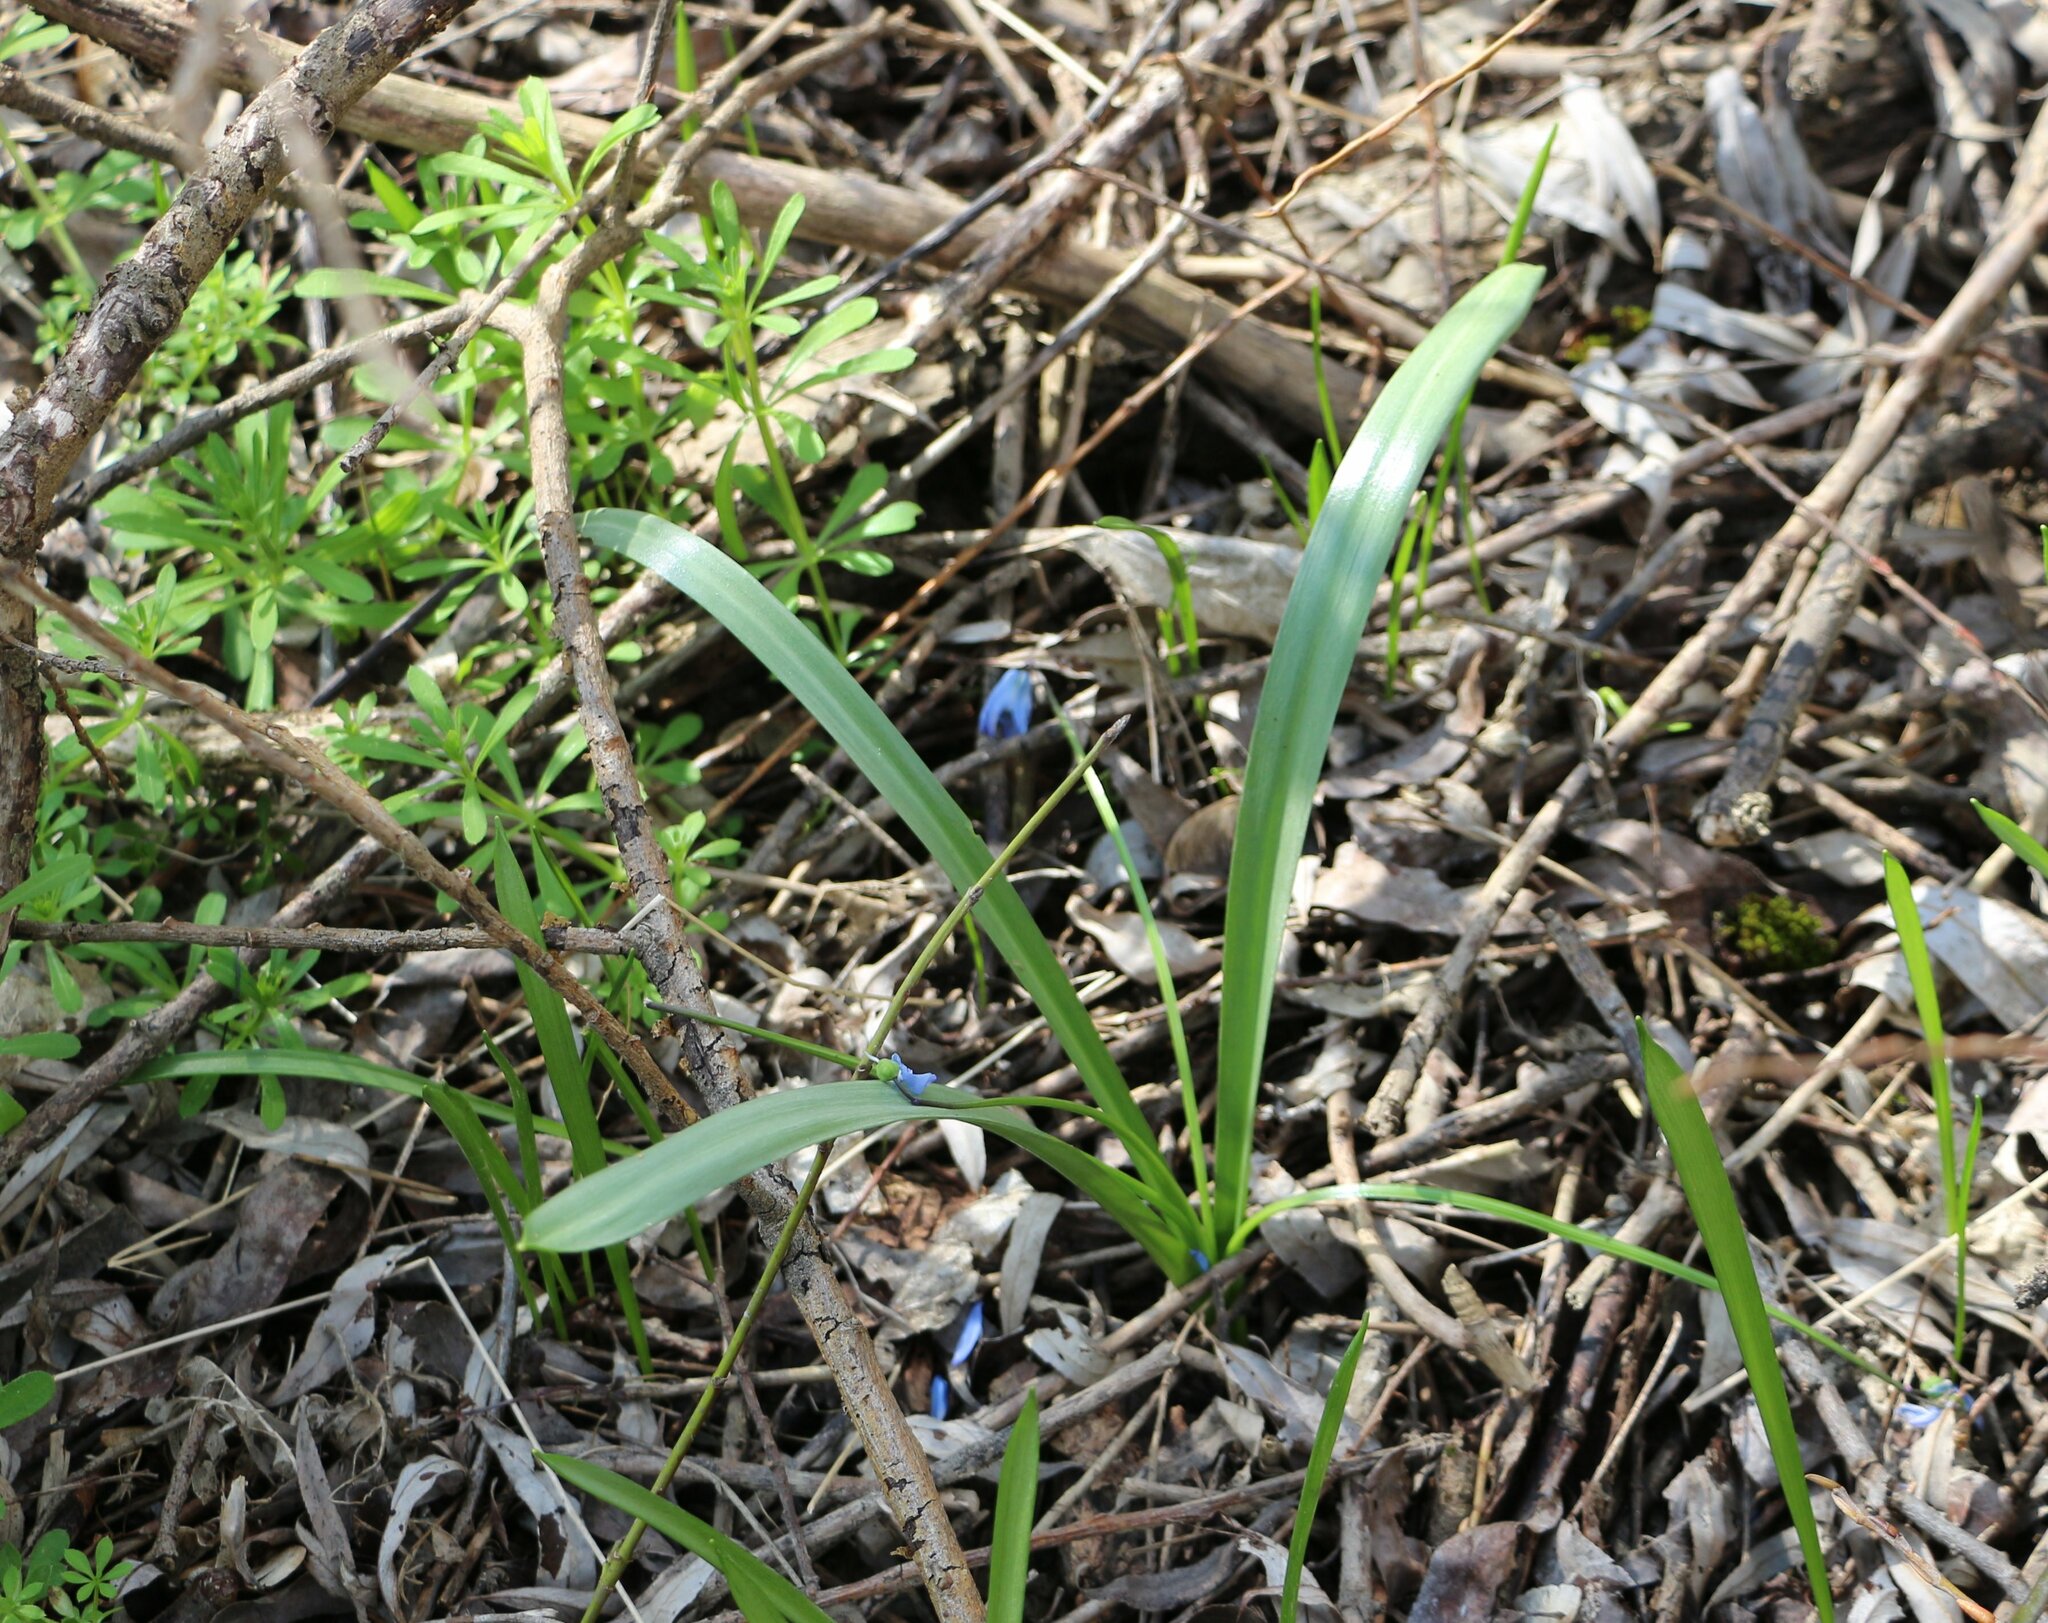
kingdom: Plantae
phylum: Tracheophyta
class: Liliopsida
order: Asparagales
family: Asparagaceae
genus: Scilla
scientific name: Scilla siberica
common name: Siberian squill
